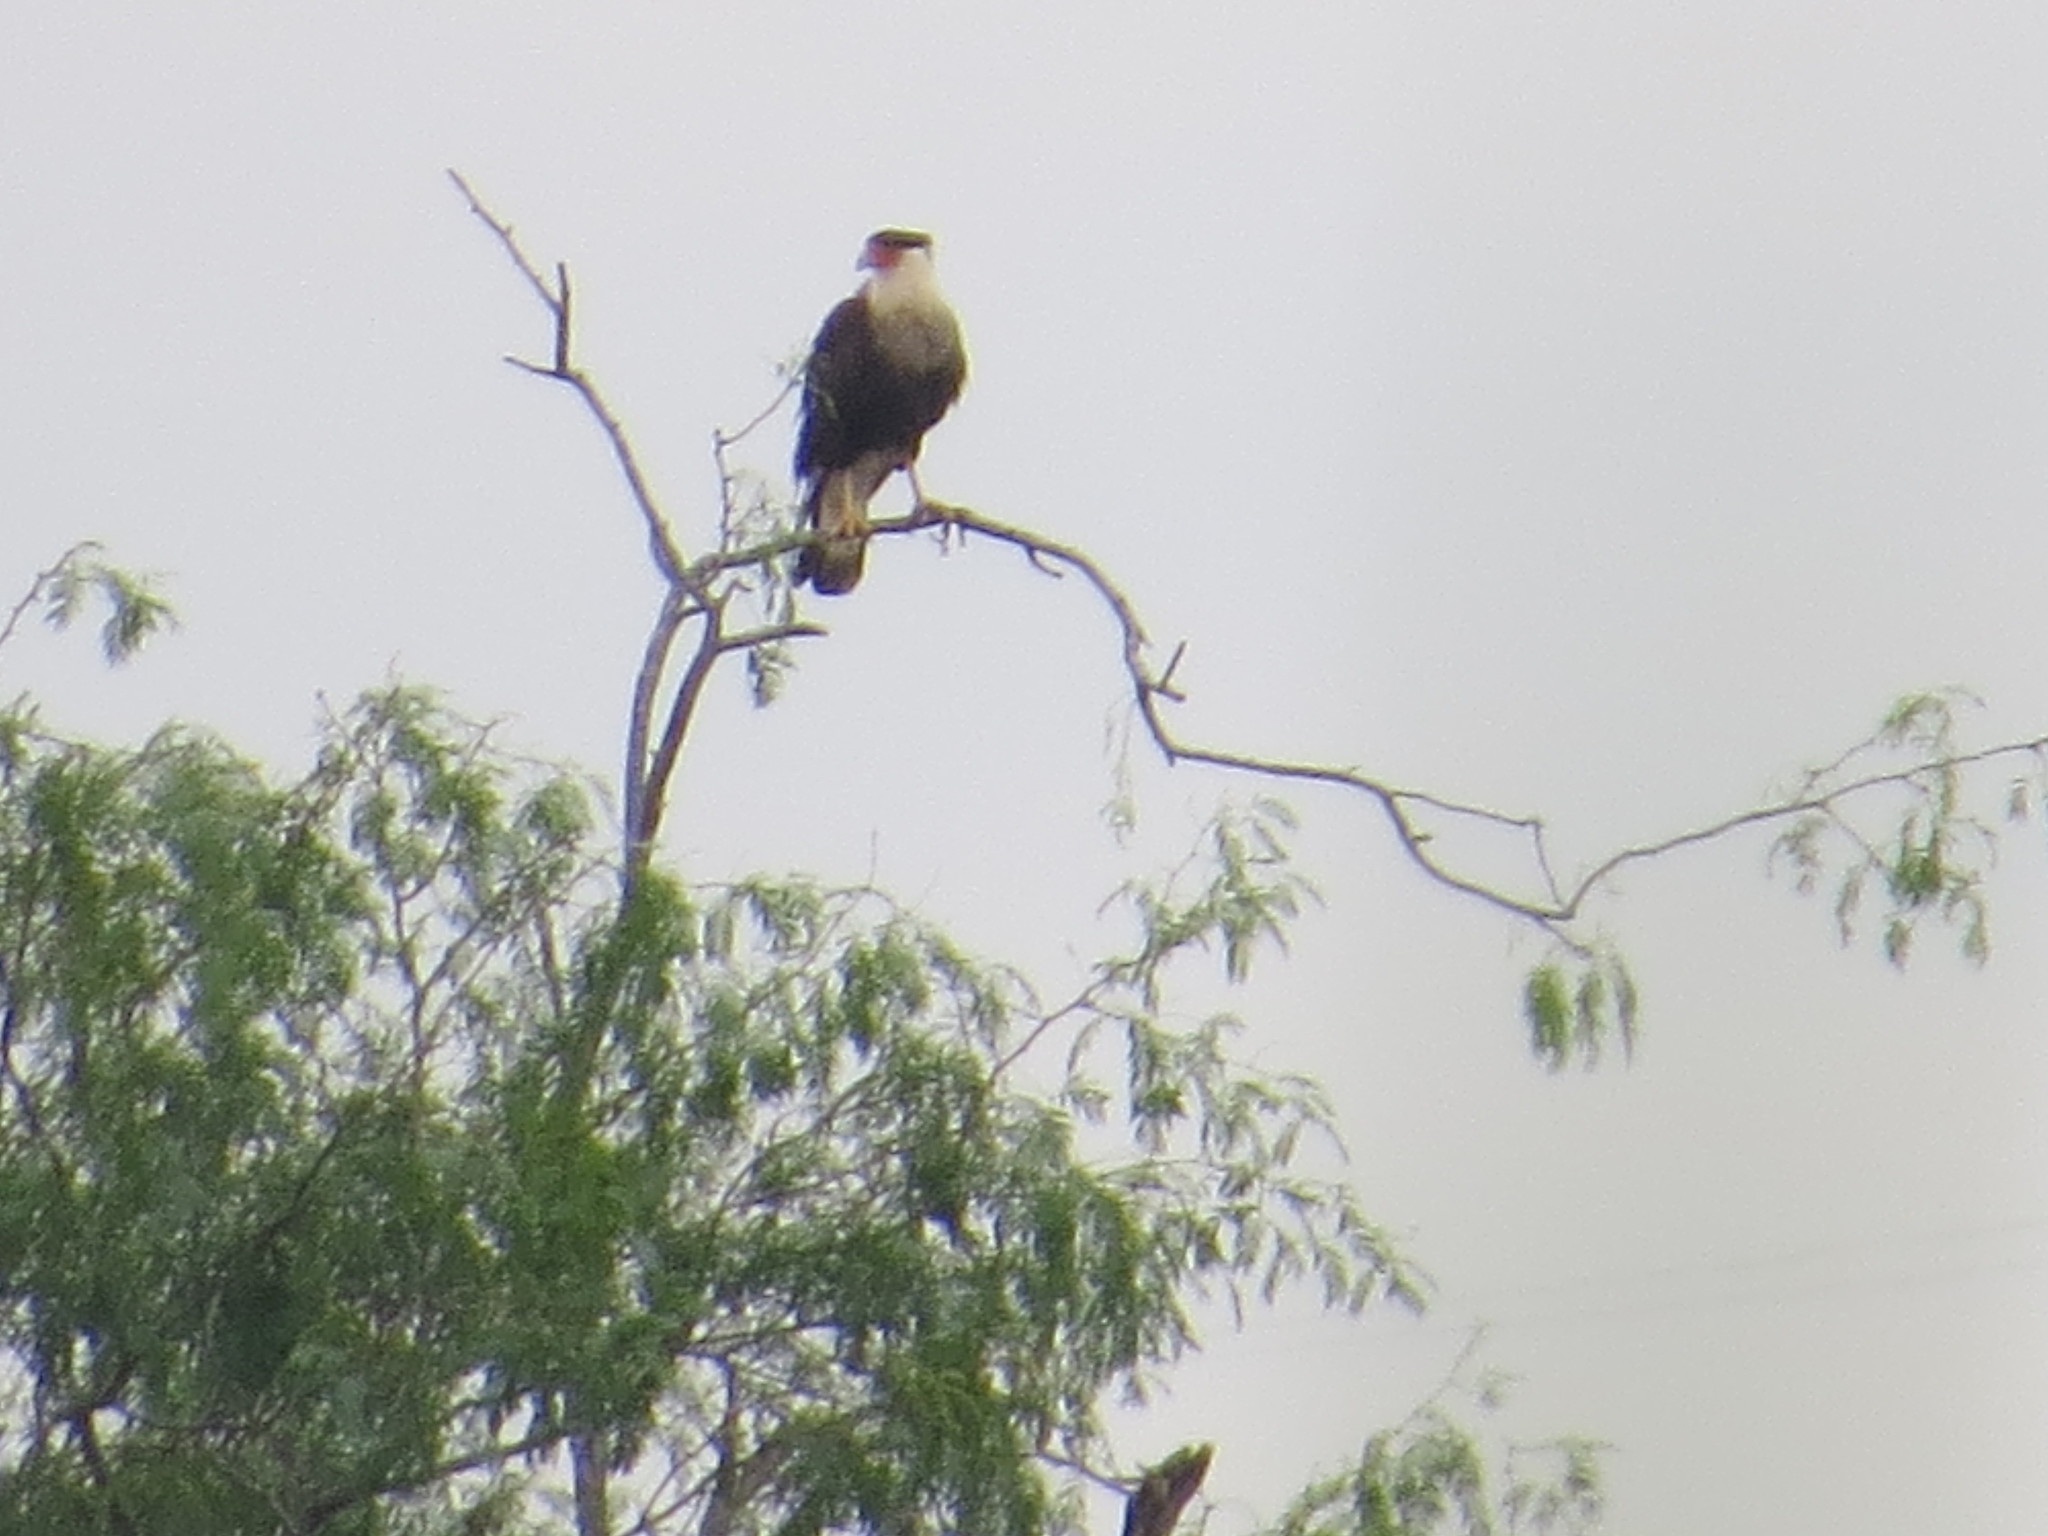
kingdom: Animalia
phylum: Chordata
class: Aves
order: Falconiformes
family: Falconidae
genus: Caracara
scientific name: Caracara plancus
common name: Southern caracara
